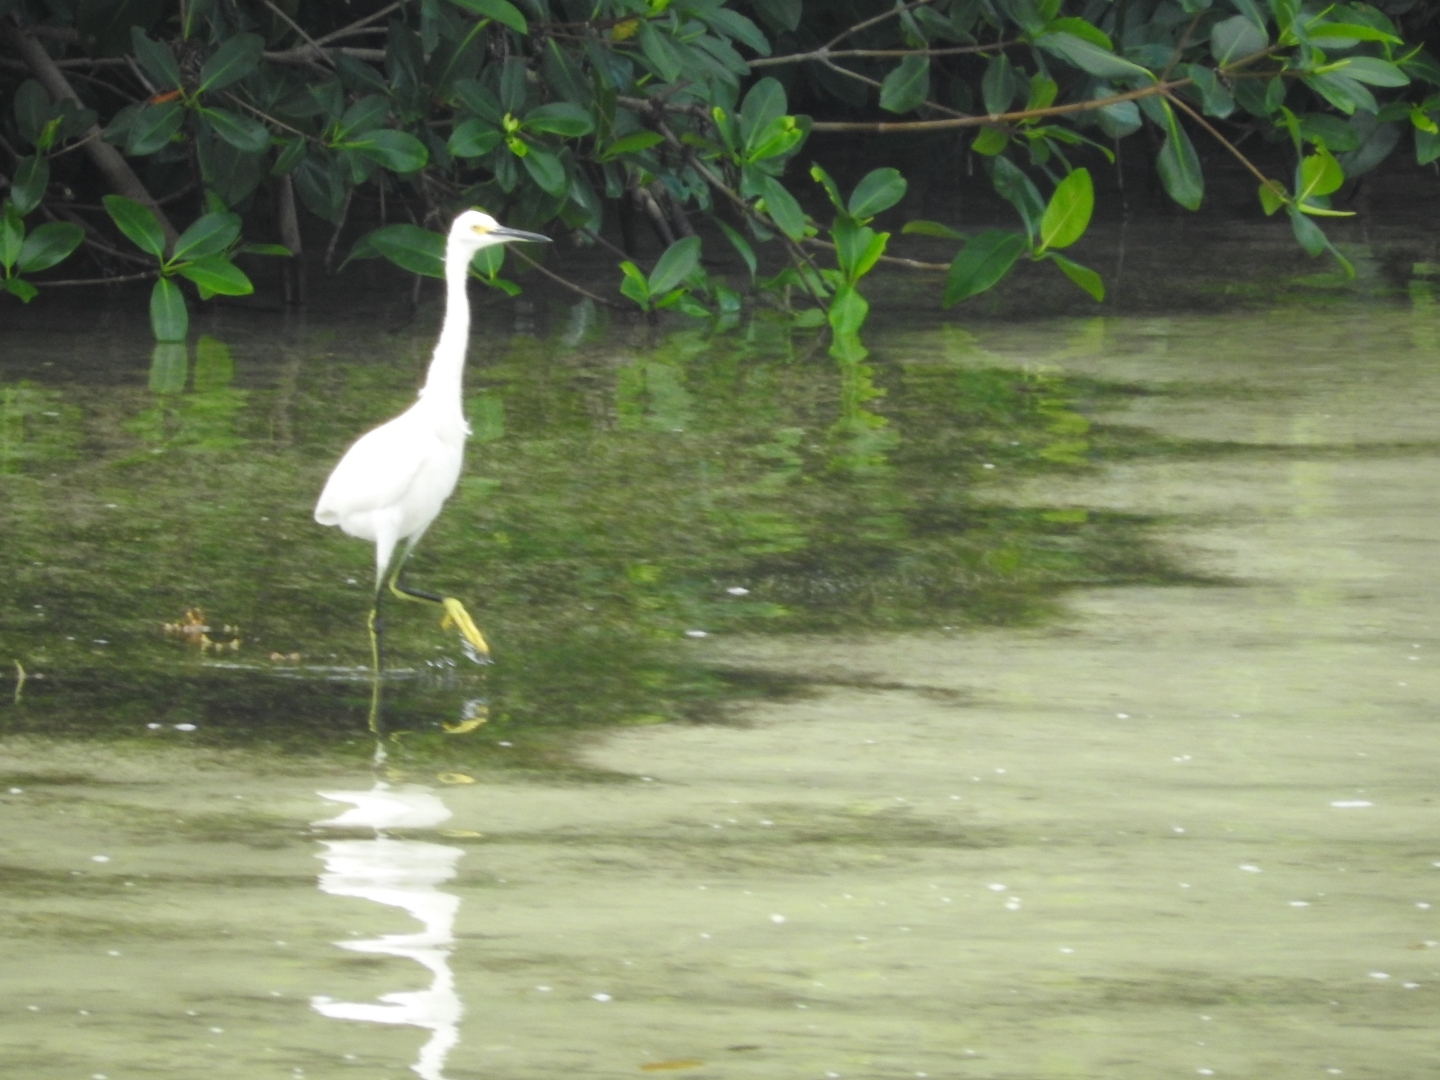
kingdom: Animalia
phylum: Chordata
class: Aves
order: Pelecaniformes
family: Ardeidae
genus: Egretta
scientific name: Egretta thula
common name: Snowy egret
